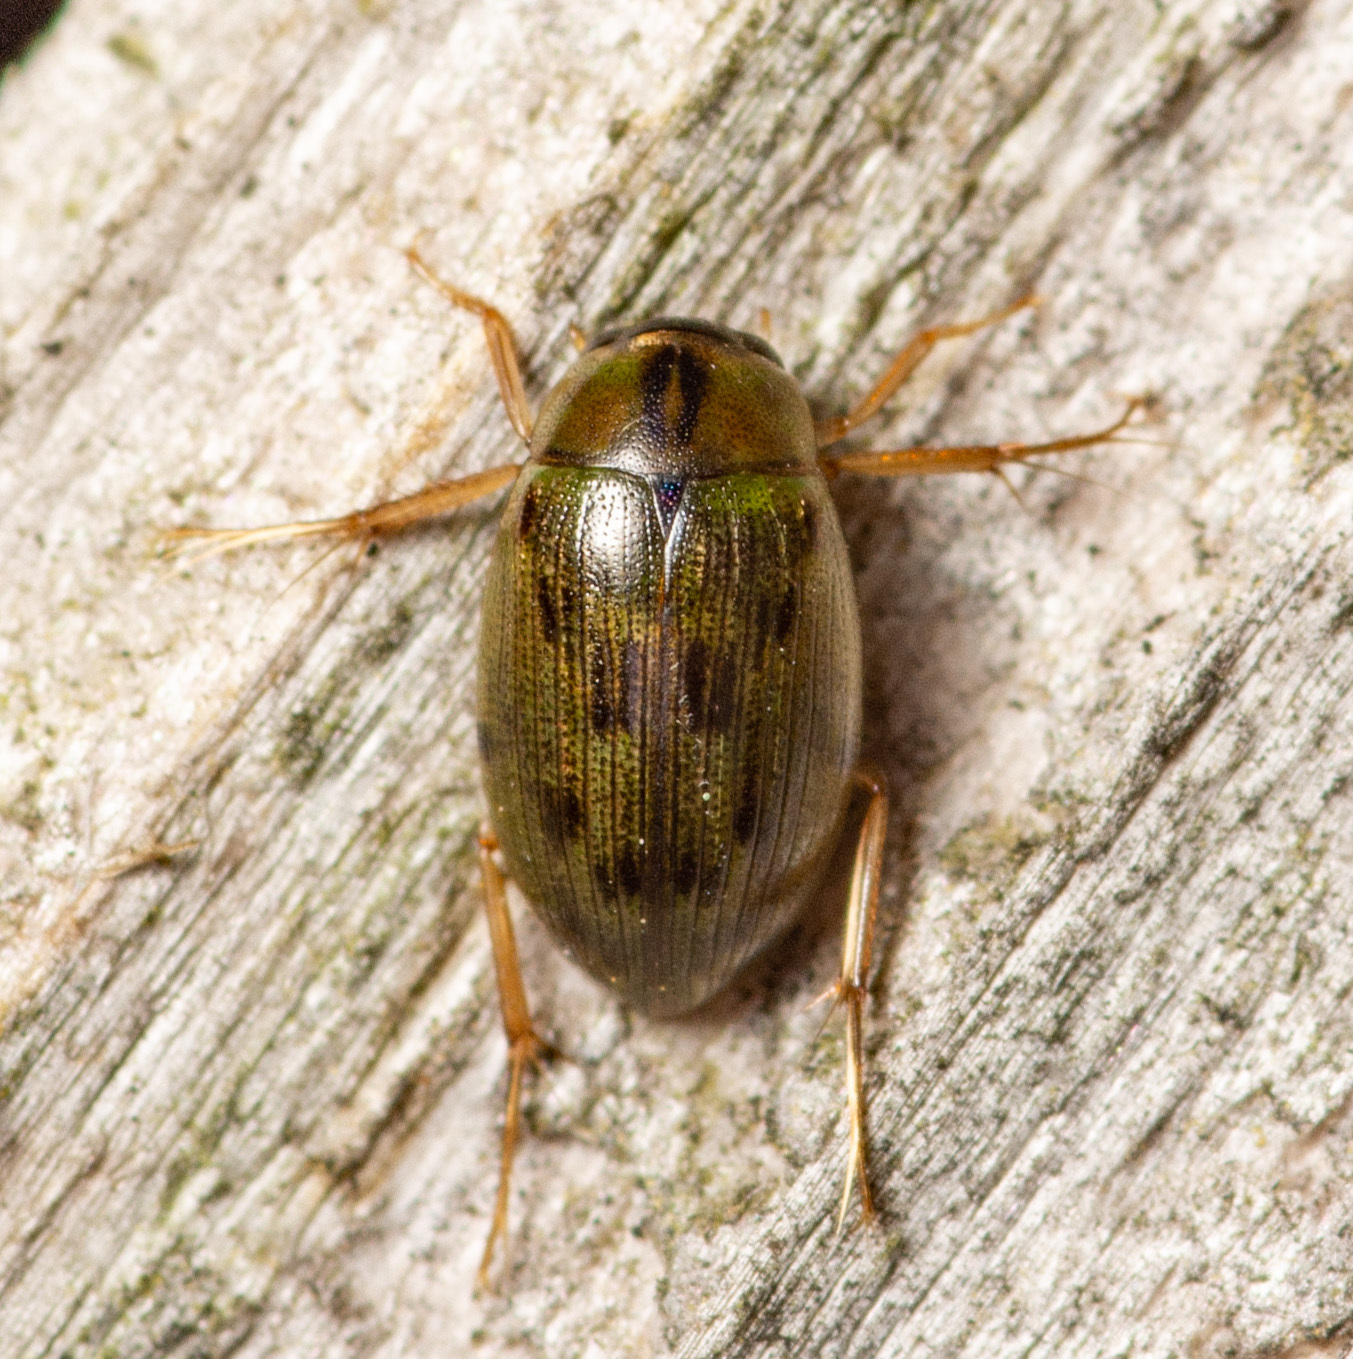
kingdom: Animalia
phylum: Arthropoda
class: Insecta
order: Coleoptera
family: Hydrophilidae
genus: Berosus
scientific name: Berosus
